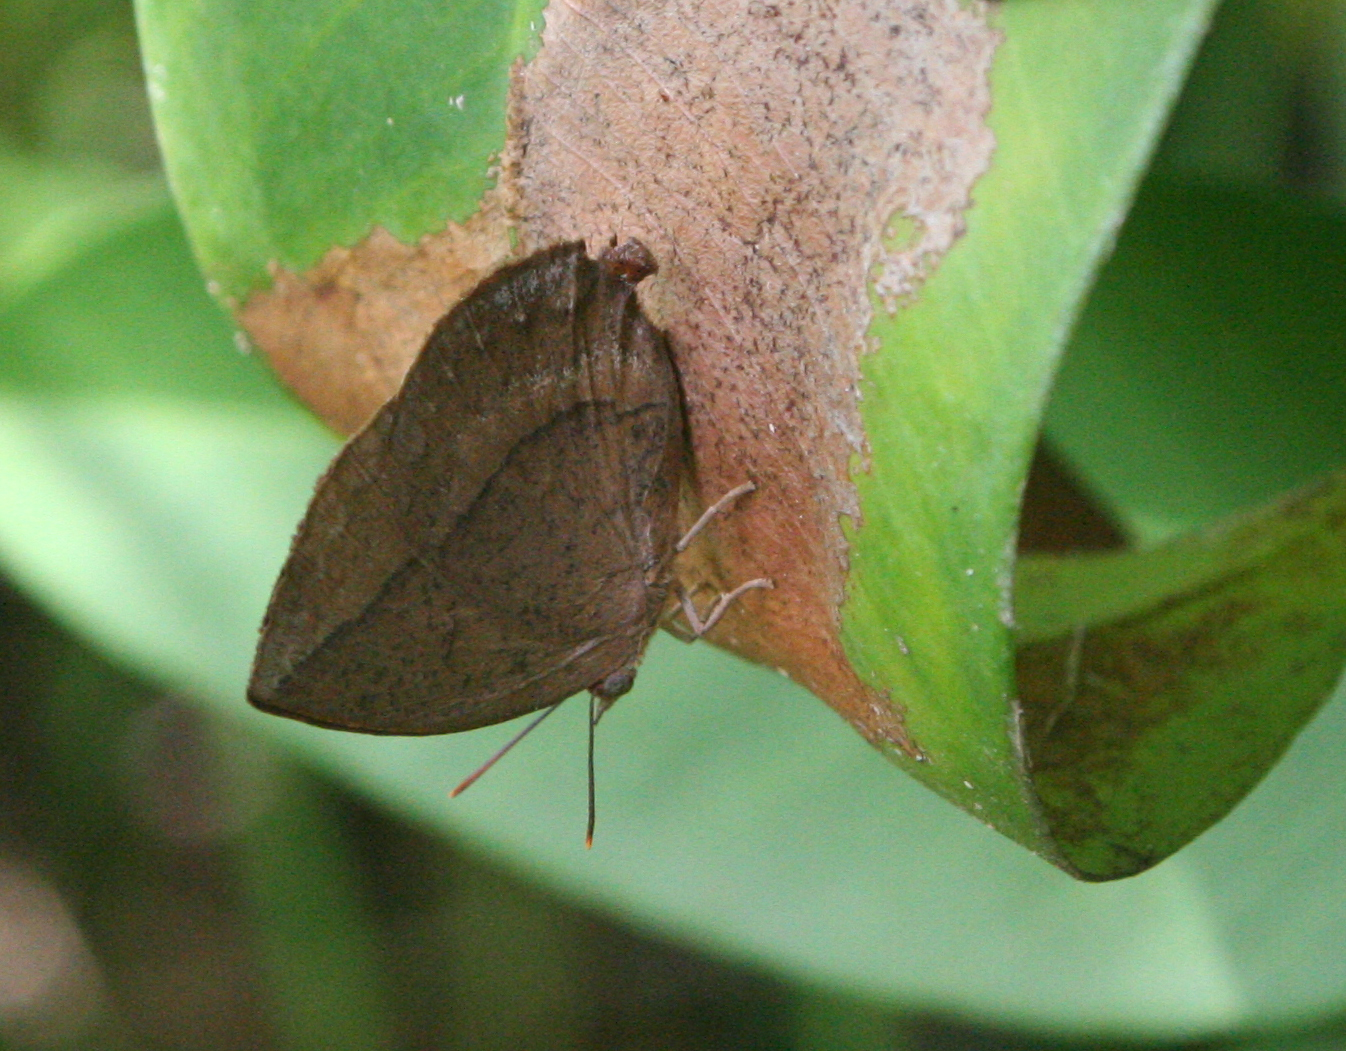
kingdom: Animalia
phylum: Arthropoda
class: Insecta
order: Lepidoptera
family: Lycaenidae
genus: Amblypodia
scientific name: Amblypodia anita
